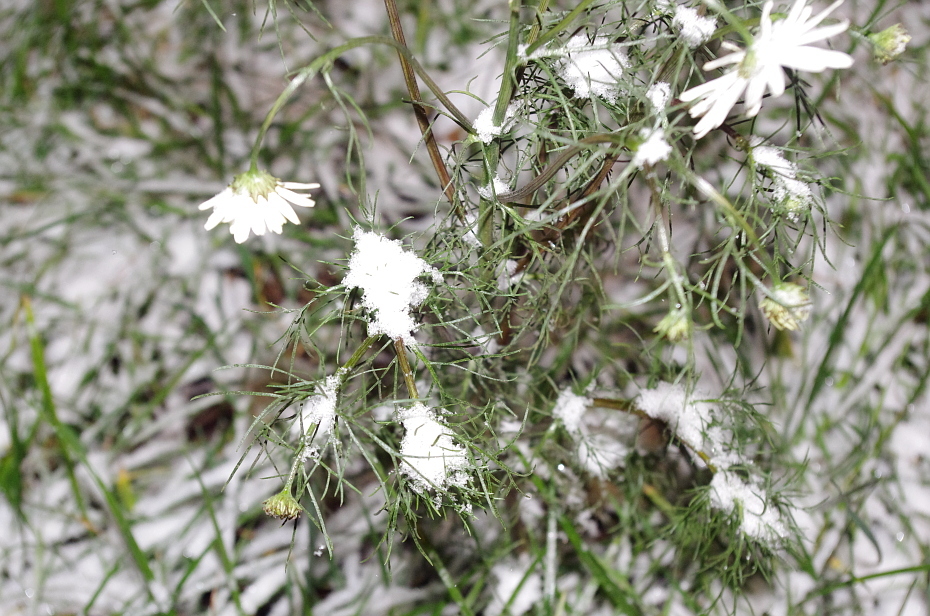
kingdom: Plantae
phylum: Tracheophyta
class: Magnoliopsida
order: Asterales
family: Asteraceae
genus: Tripleurospermum
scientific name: Tripleurospermum inodorum
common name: Scentless mayweed
